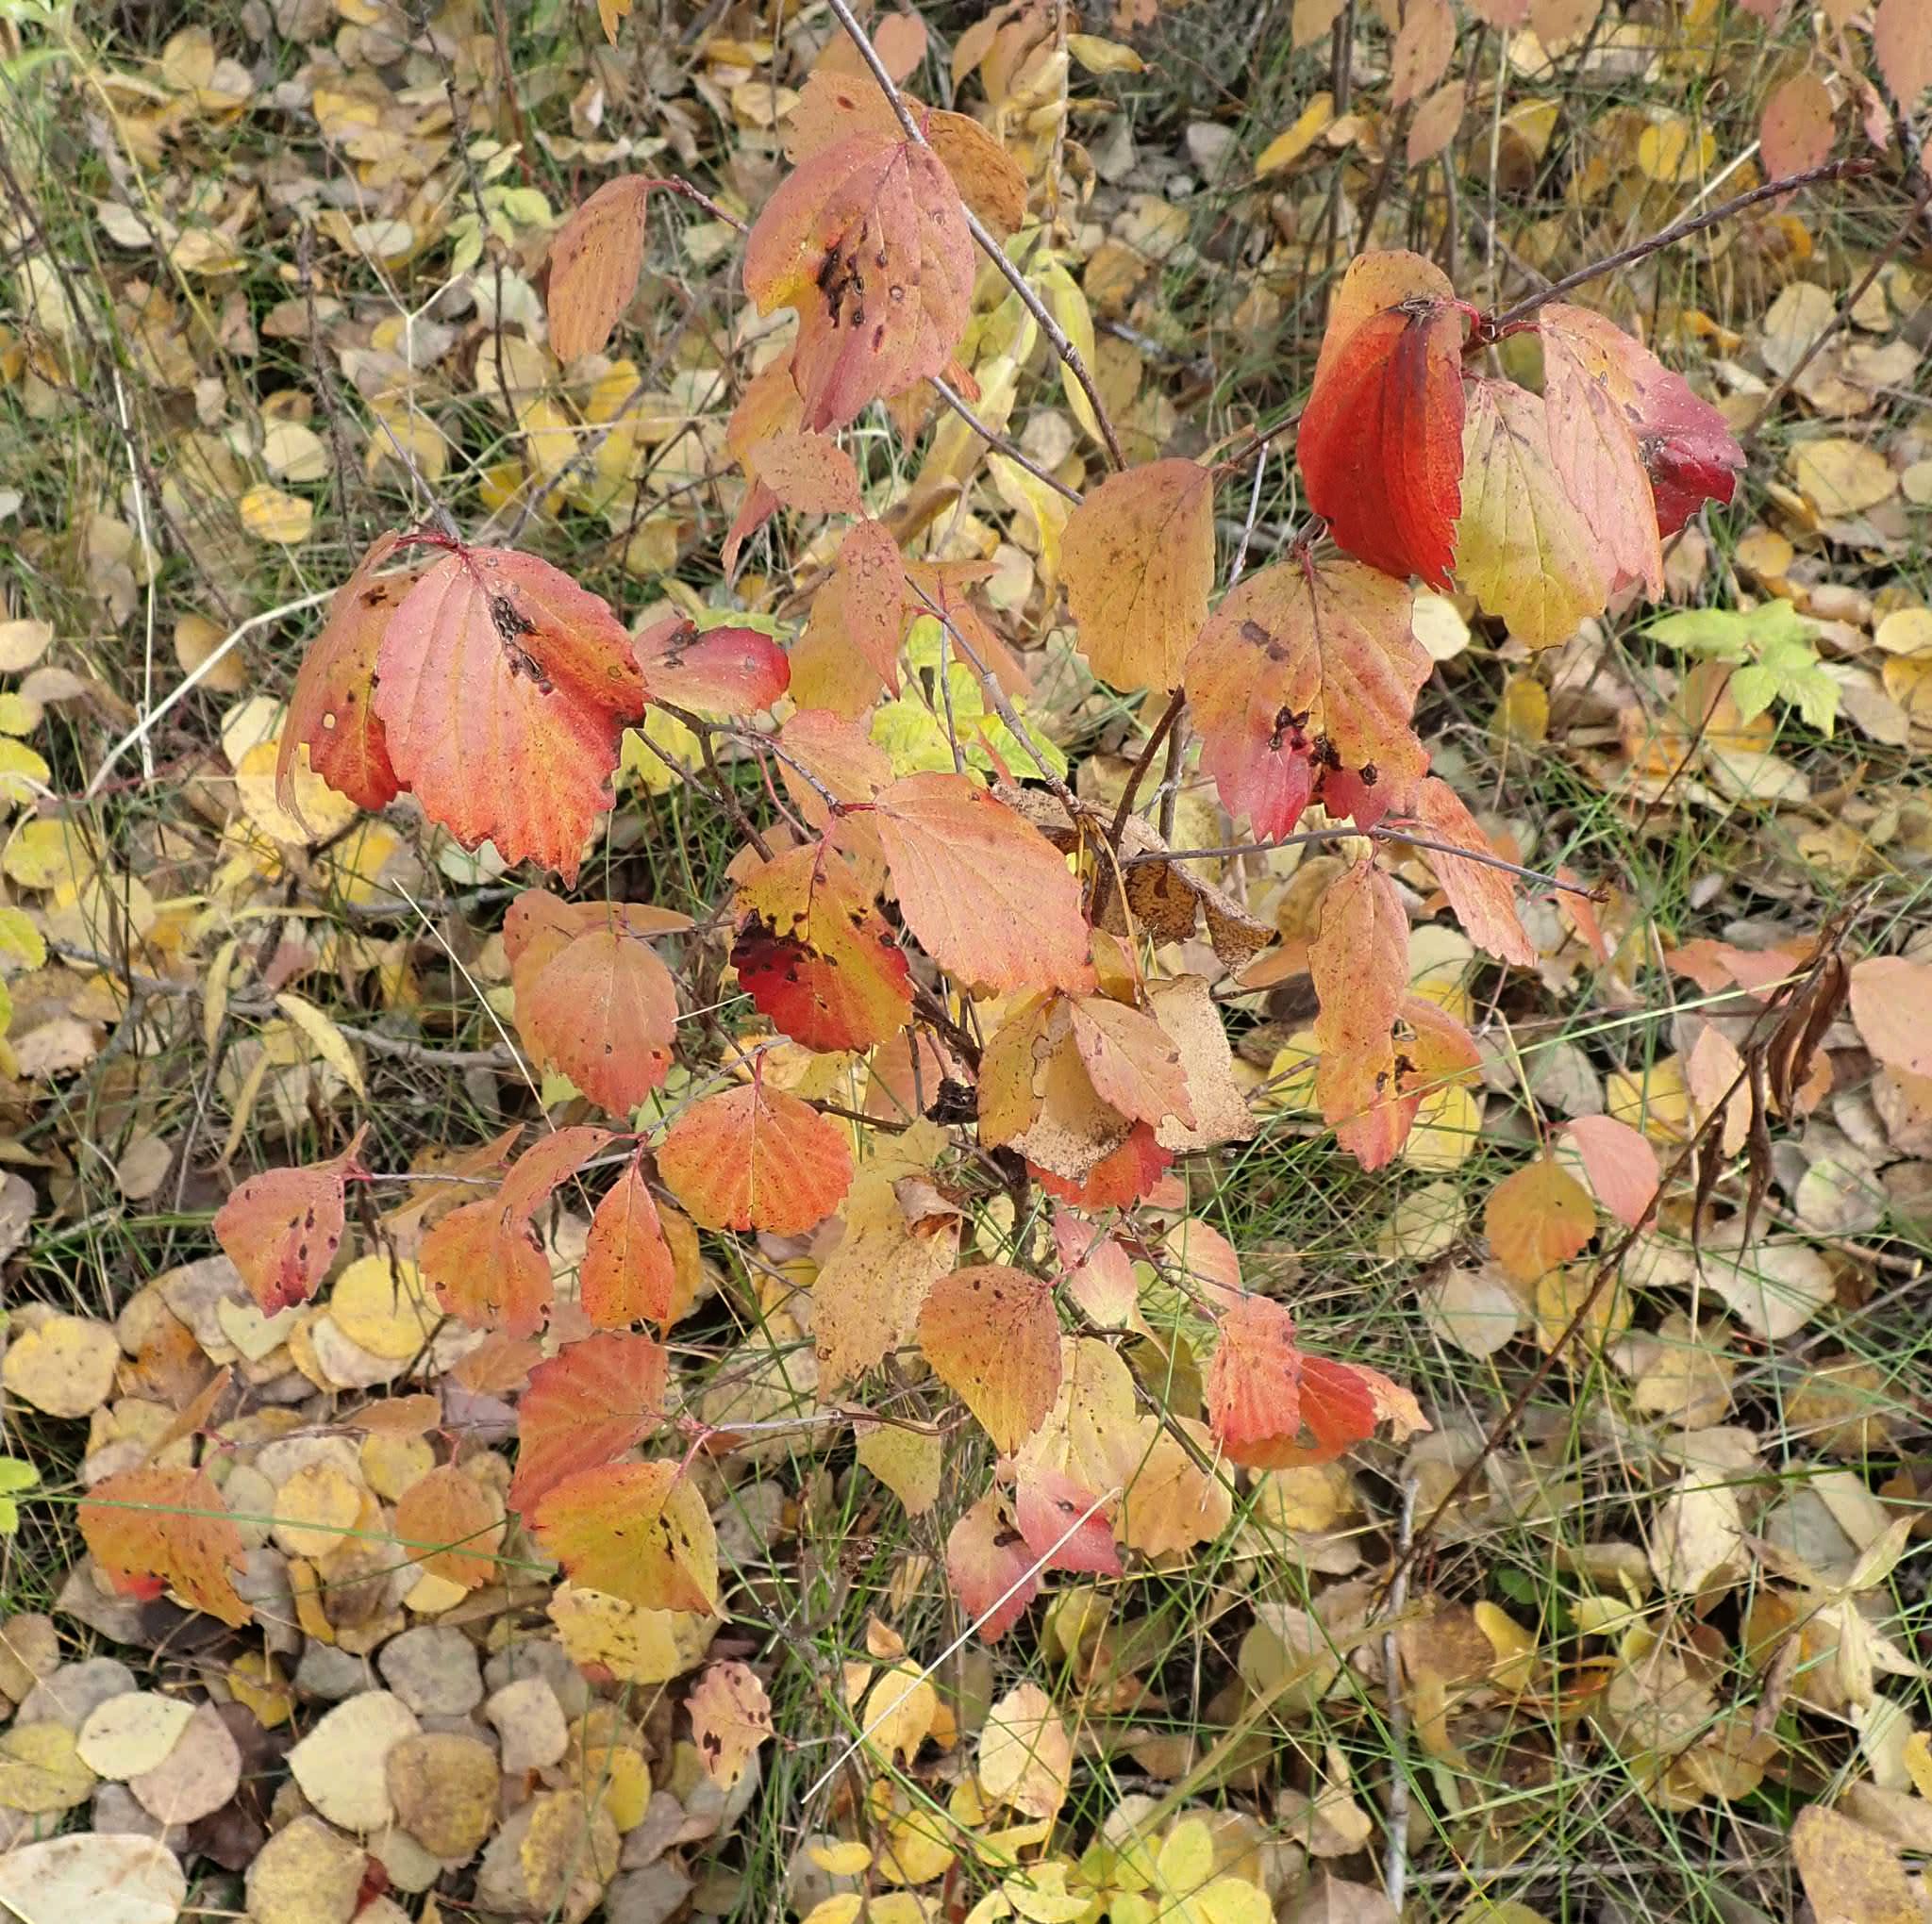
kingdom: Plantae
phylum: Tracheophyta
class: Magnoliopsida
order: Dipsacales
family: Viburnaceae
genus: Viburnum
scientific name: Viburnum rafinesqueanum
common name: Downy arrow-wood
